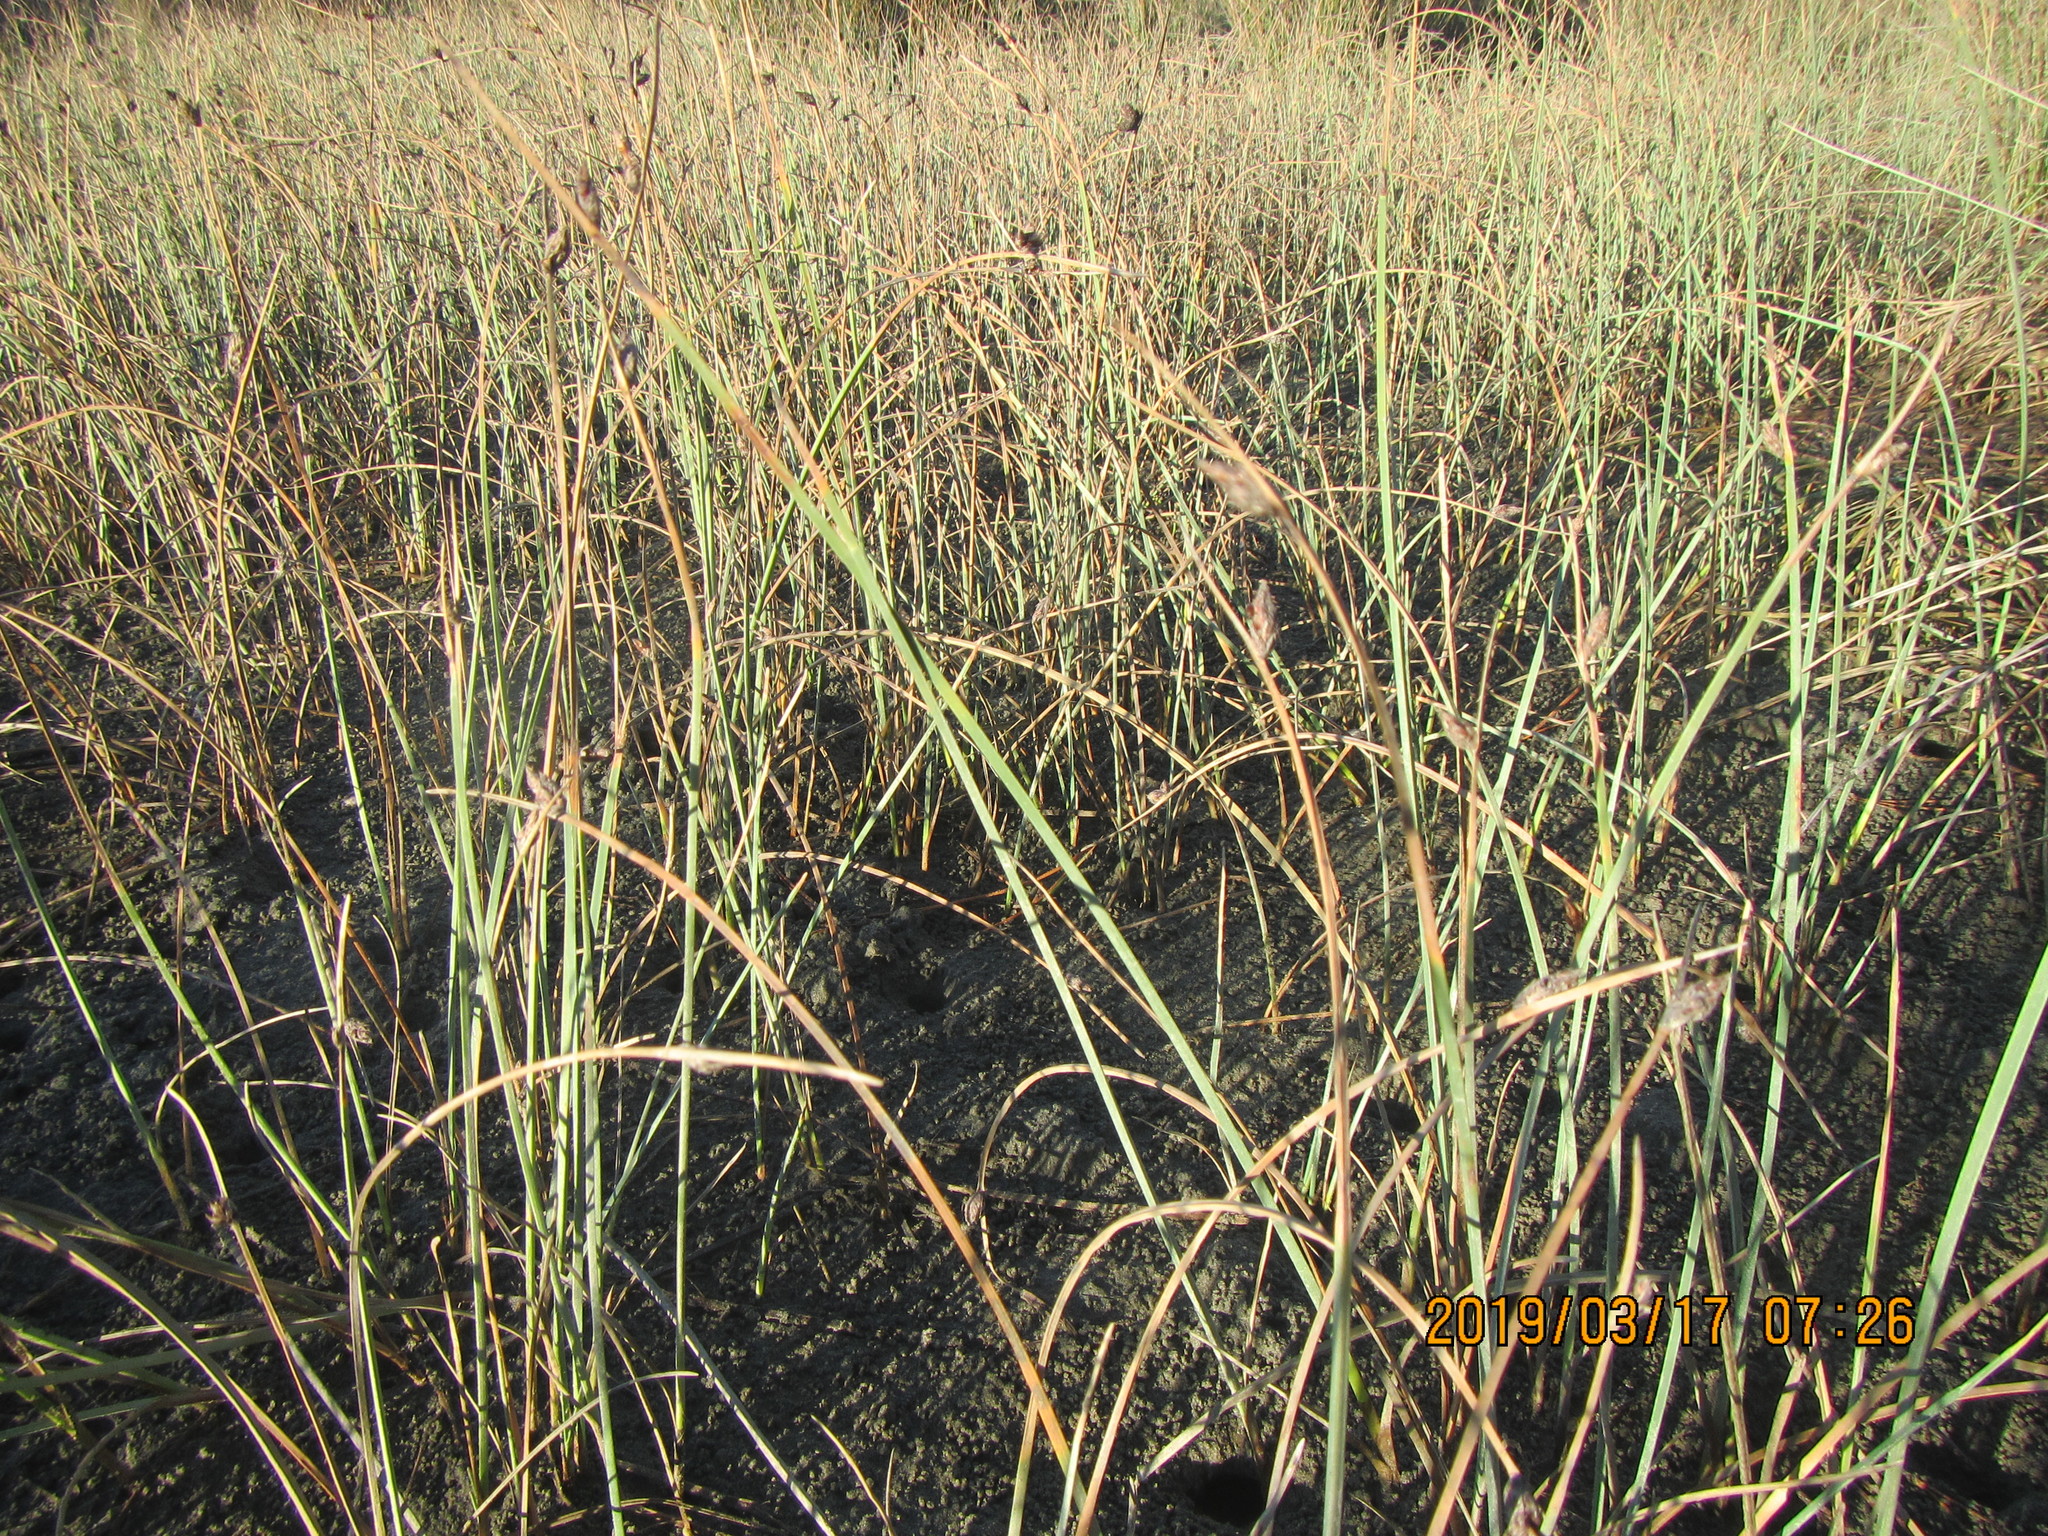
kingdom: Plantae
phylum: Tracheophyta
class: Liliopsida
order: Poales
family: Cyperaceae
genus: Schoenoplectus
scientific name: Schoenoplectus pungens
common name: Sharp club-rush
